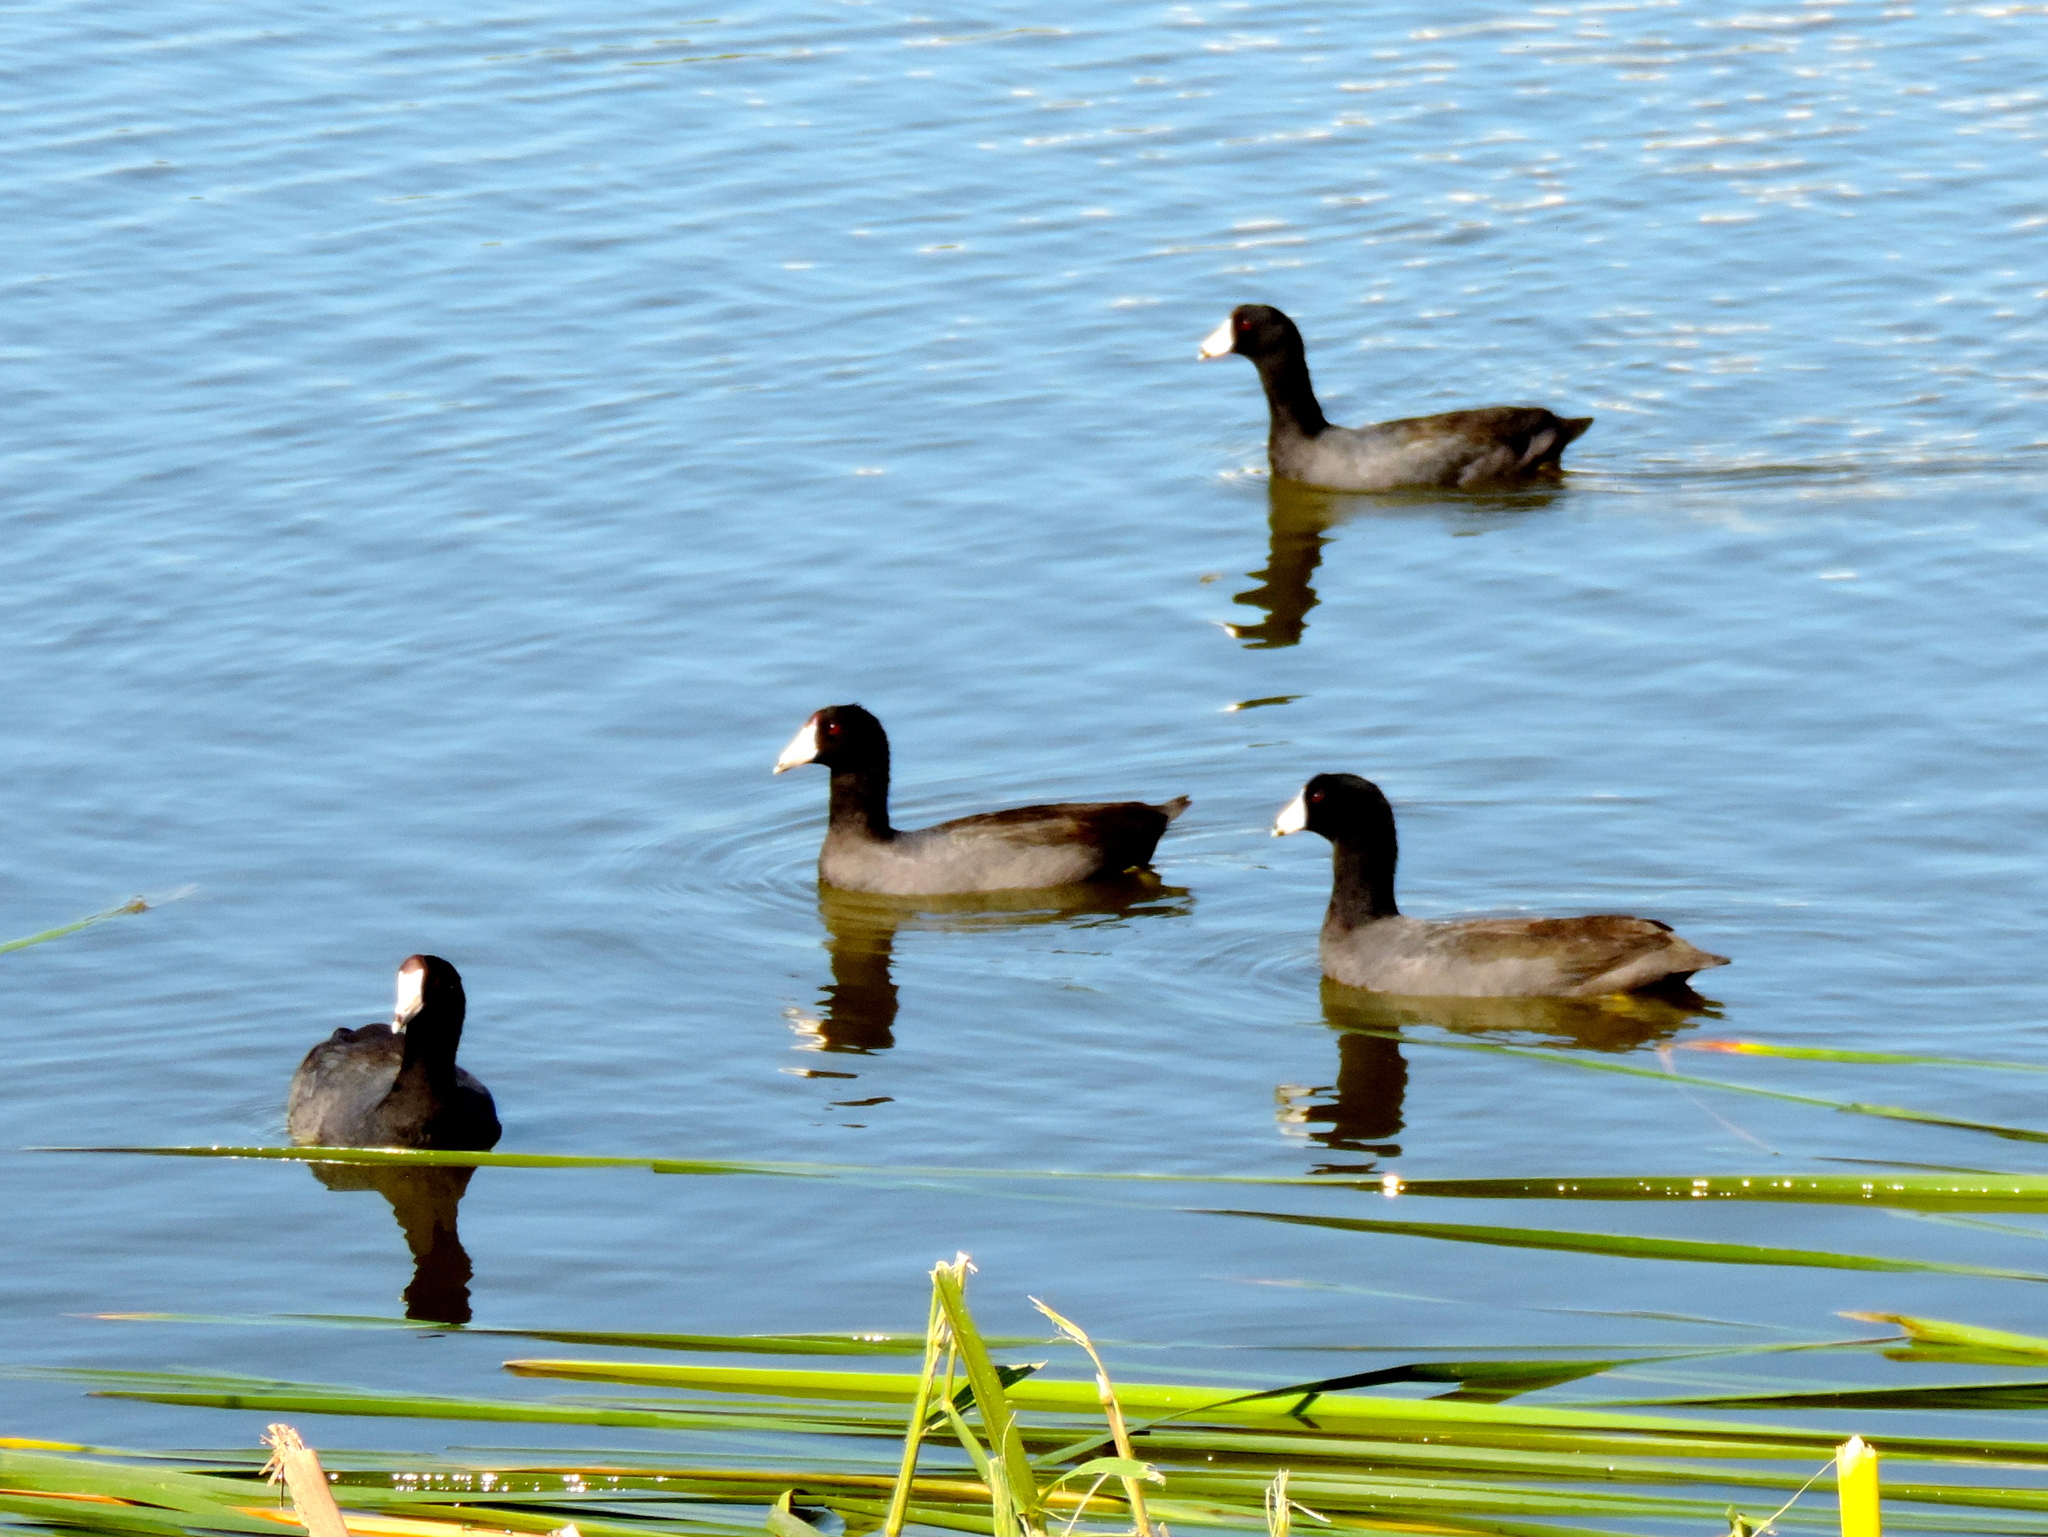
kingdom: Animalia
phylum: Chordata
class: Aves
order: Gruiformes
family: Rallidae
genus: Fulica
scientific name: Fulica americana
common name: American coot
